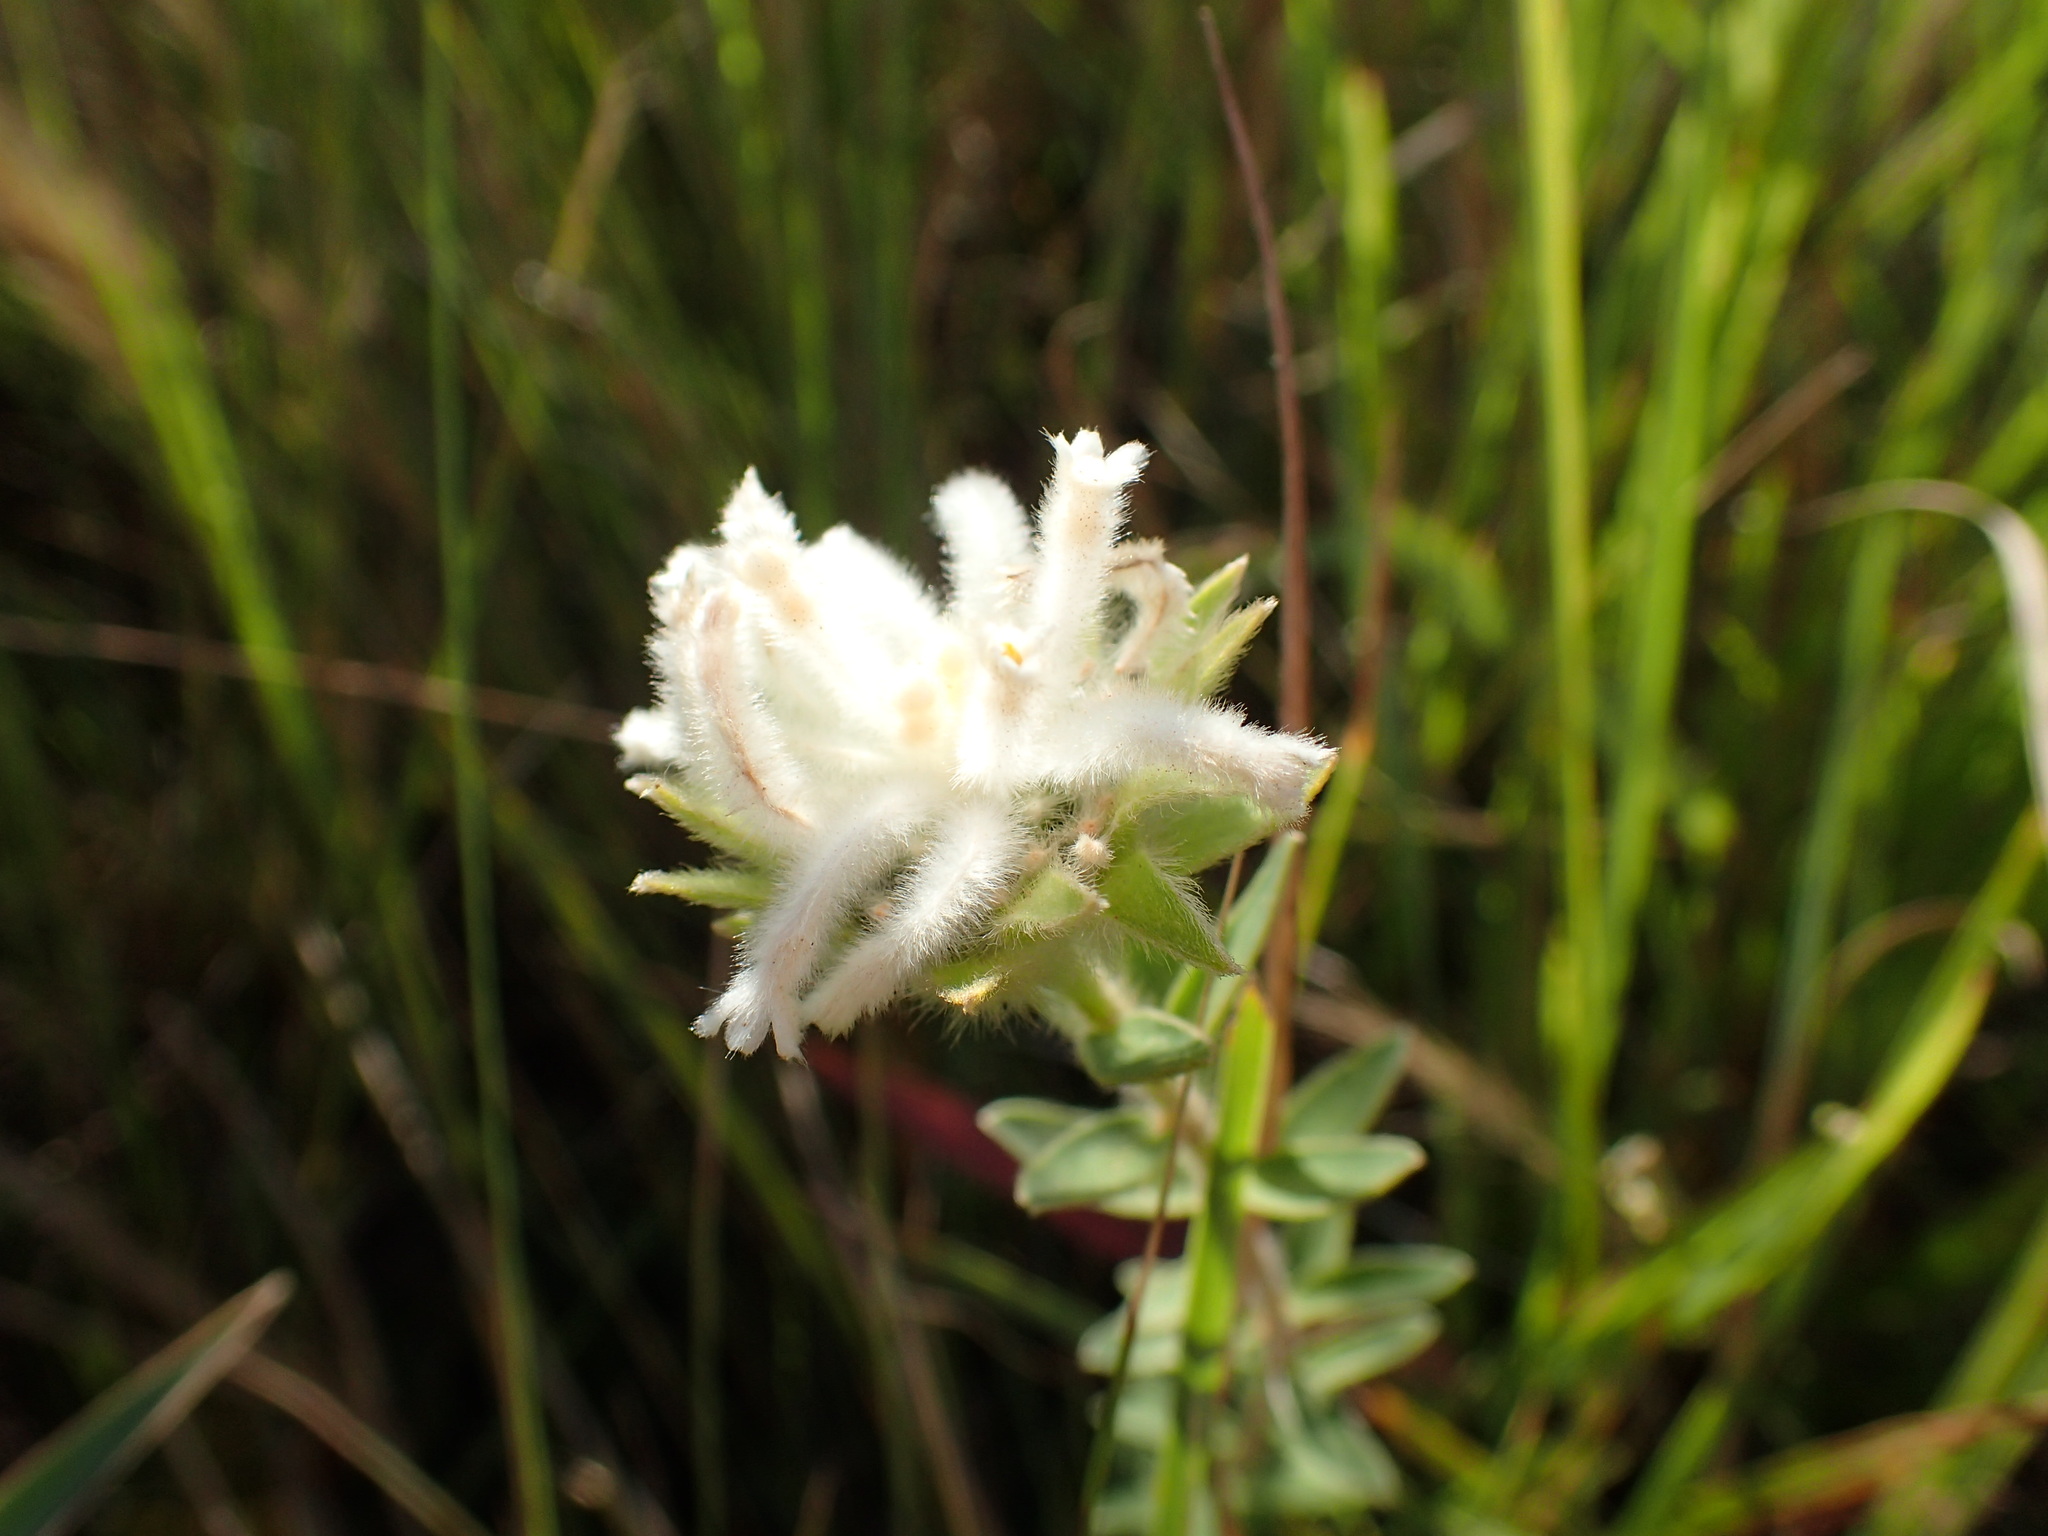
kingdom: Plantae
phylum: Tracheophyta
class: Magnoliopsida
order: Malvales
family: Thymelaeaceae
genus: Gnidia
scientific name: Gnidia calocephala
